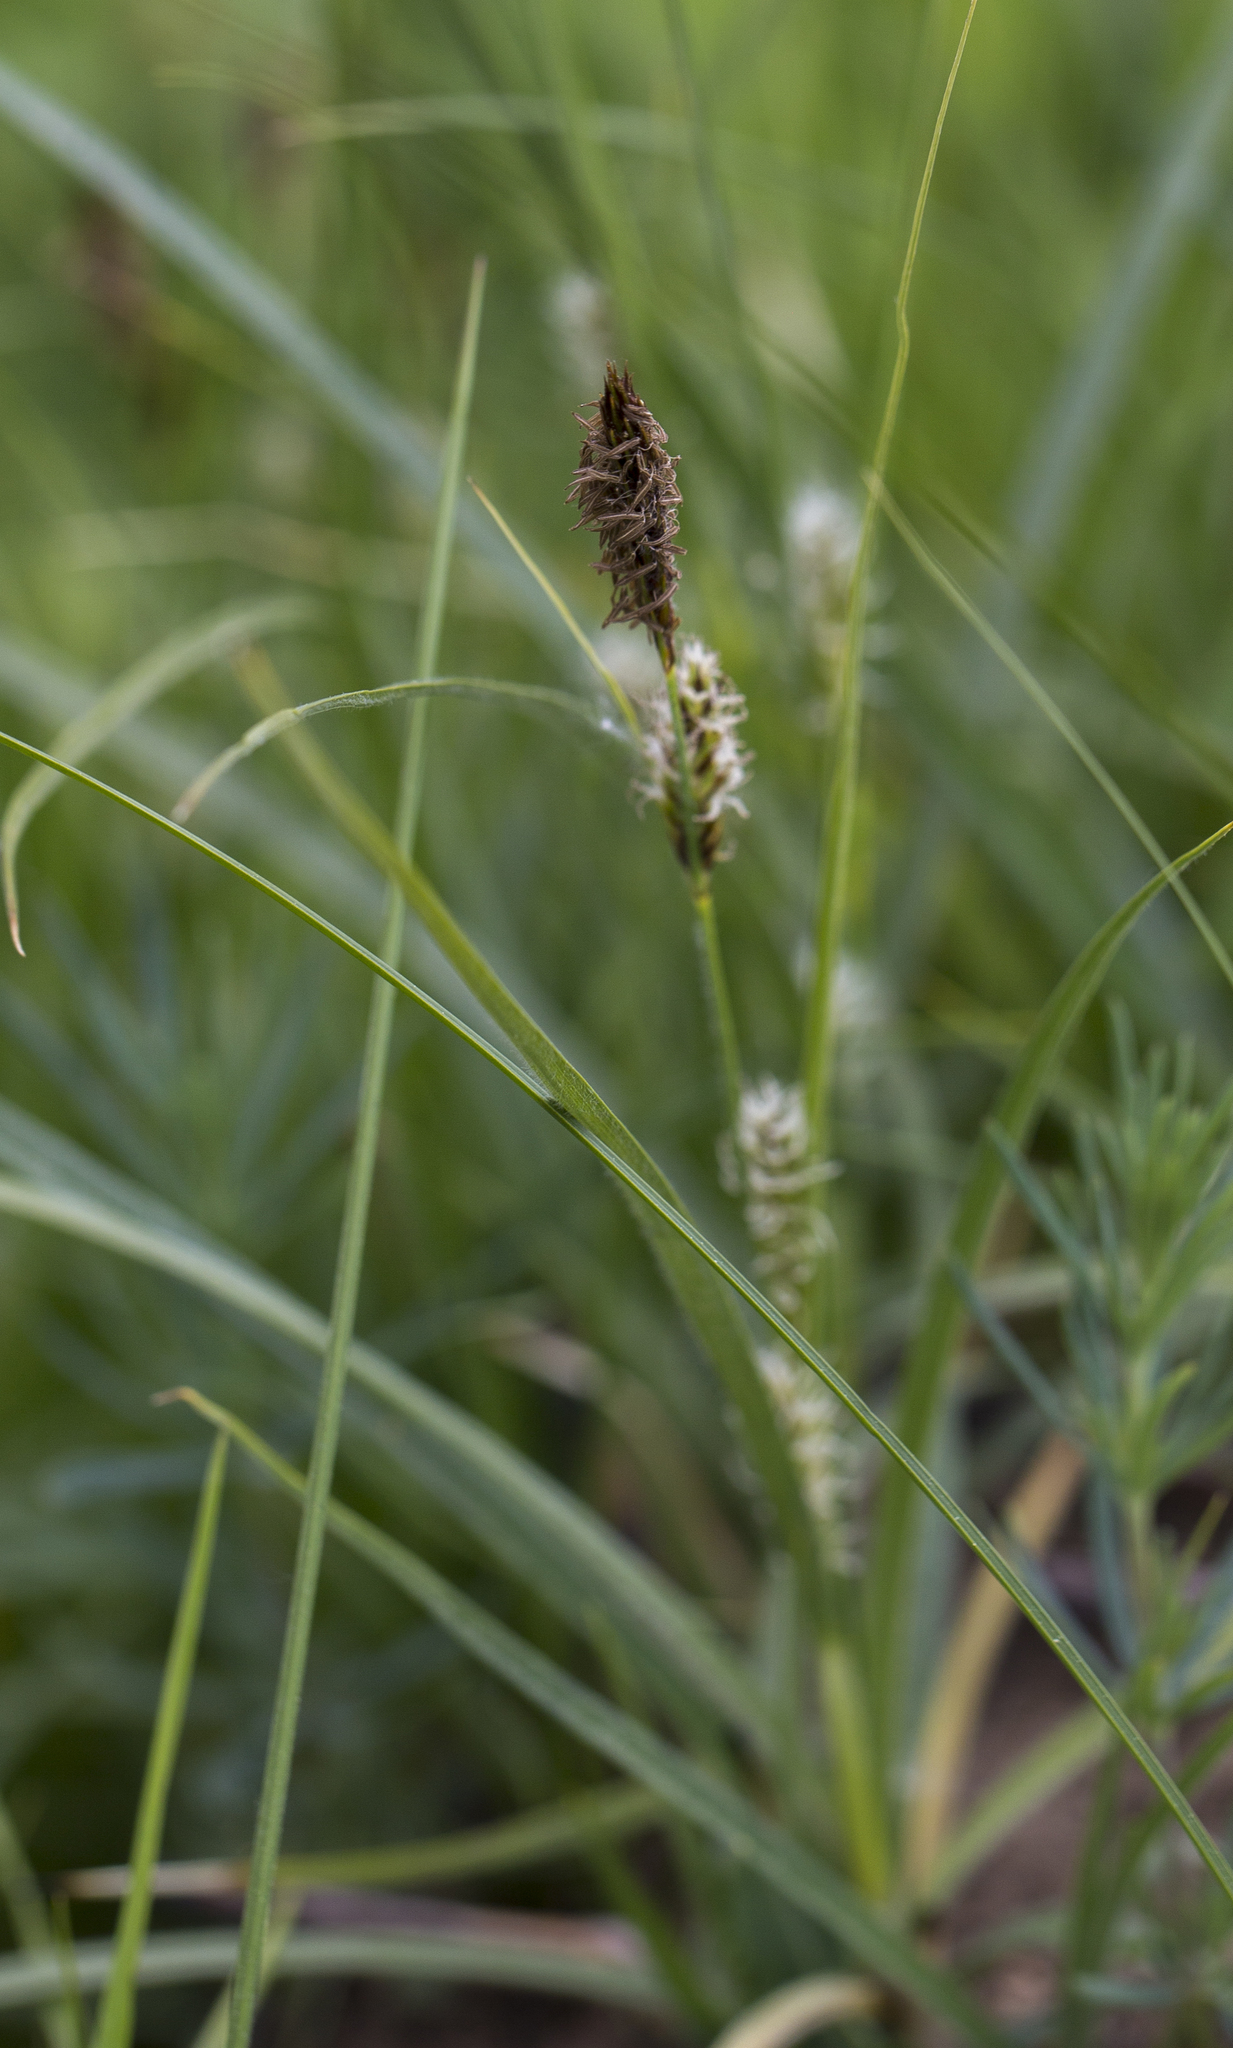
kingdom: Plantae
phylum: Tracheophyta
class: Liliopsida
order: Poales
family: Cyperaceae
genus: Carex
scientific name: Carex hirta
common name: Hairy sedge
